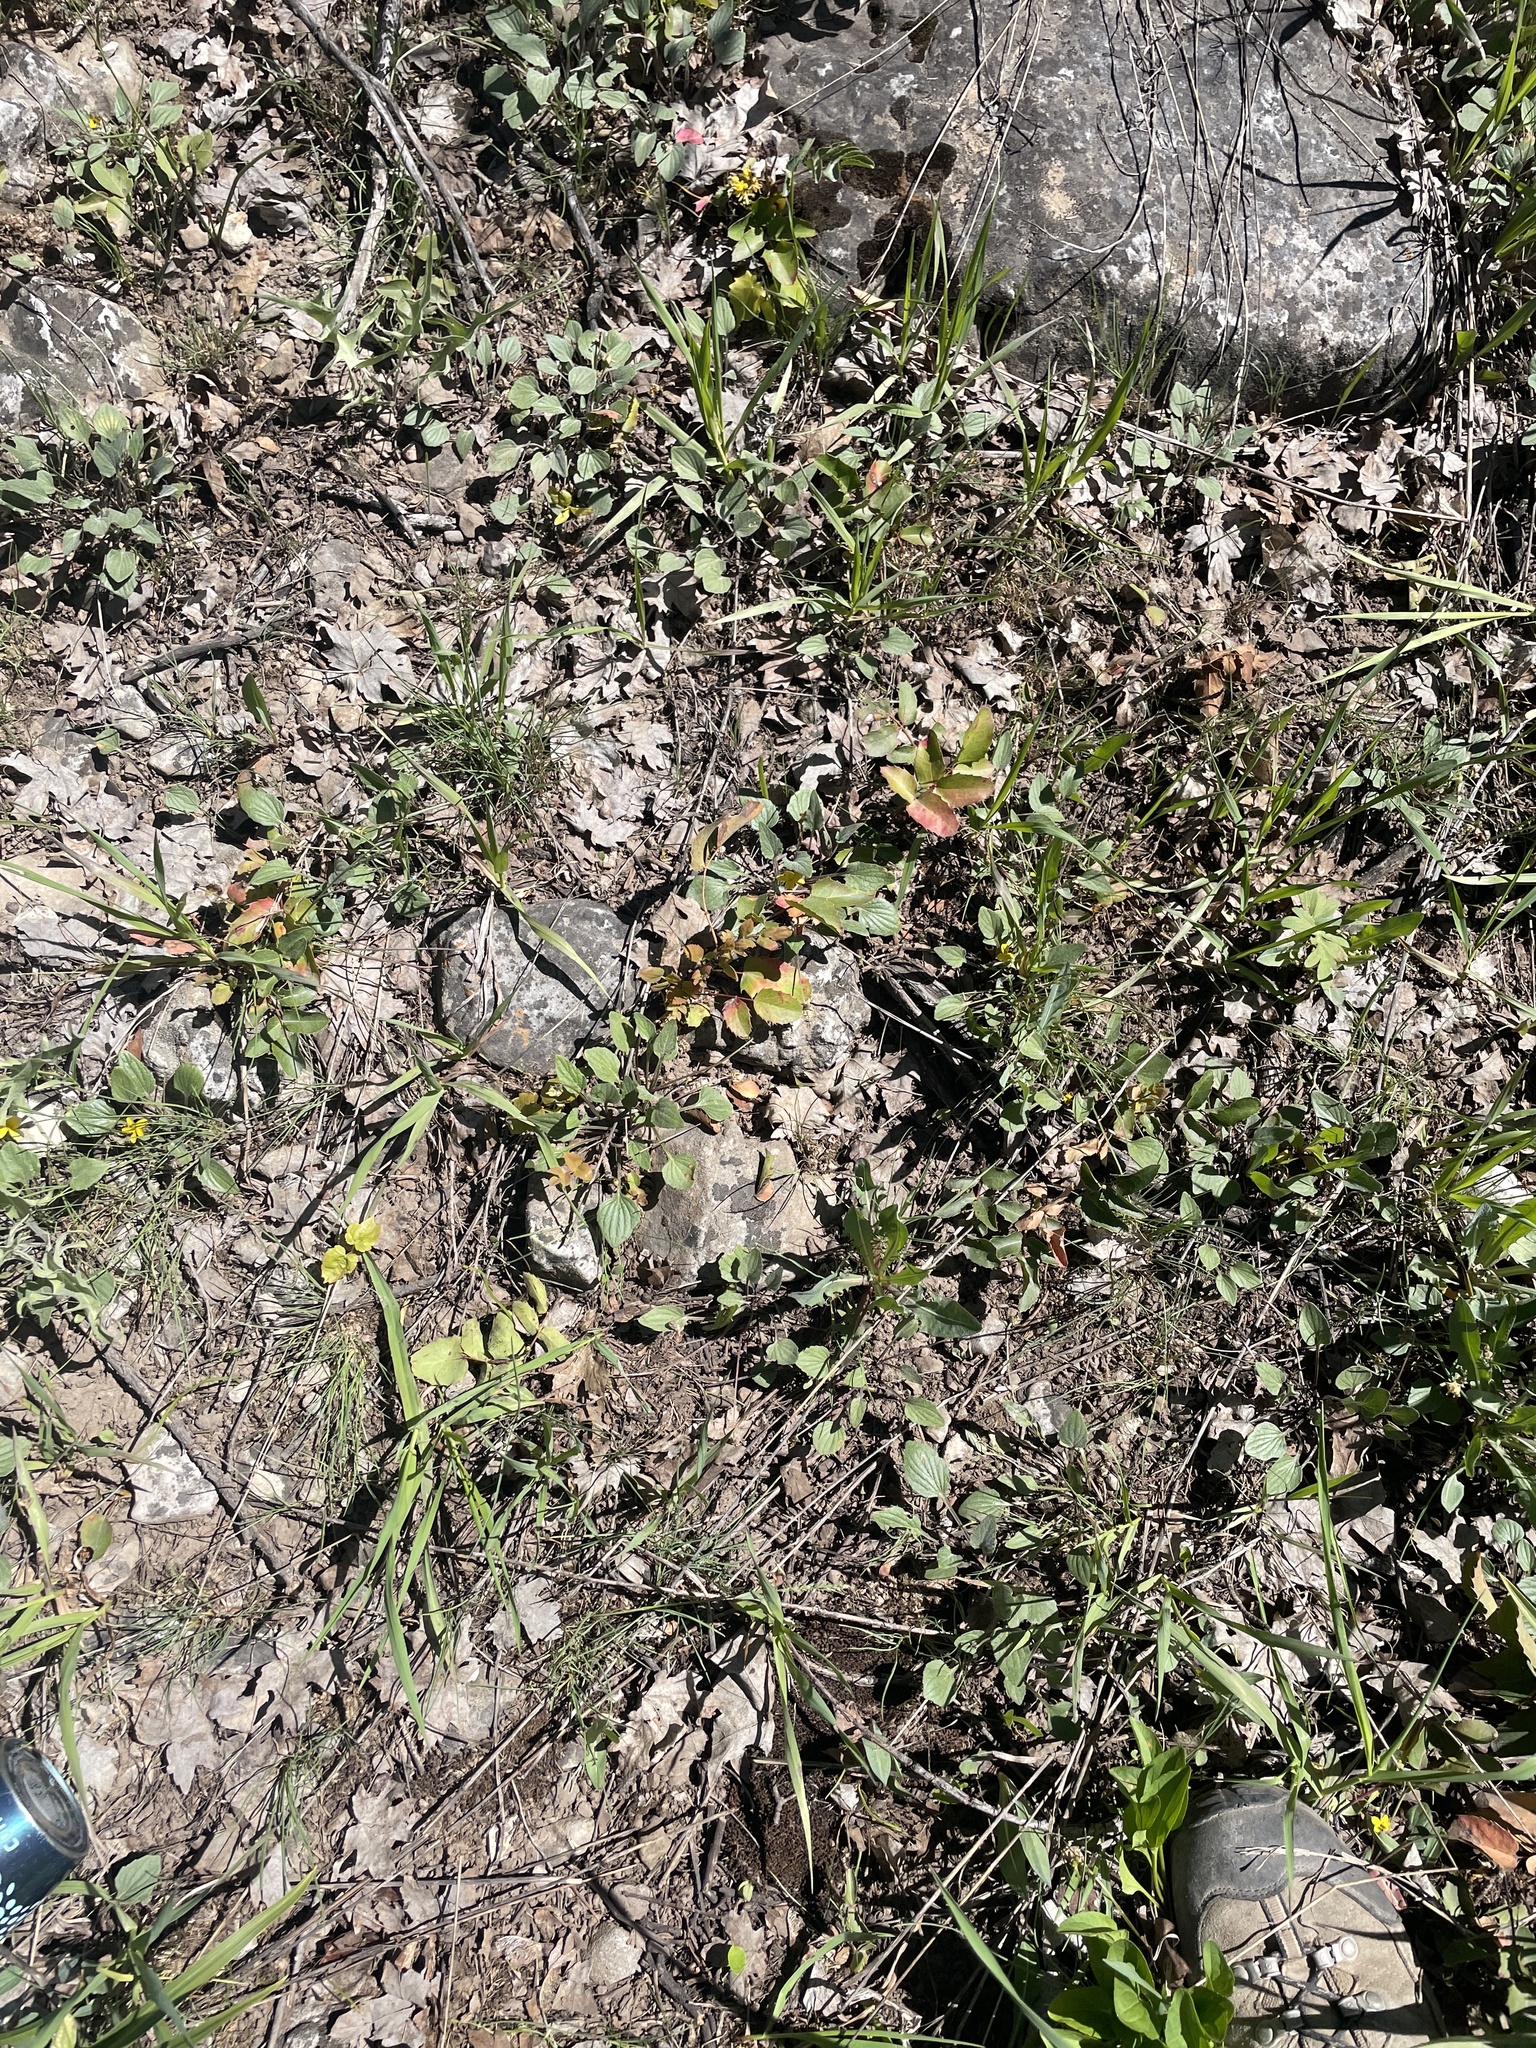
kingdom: Plantae
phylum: Tracheophyta
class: Magnoliopsida
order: Malpighiales
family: Violaceae
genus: Viola
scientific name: Viola utahensis
